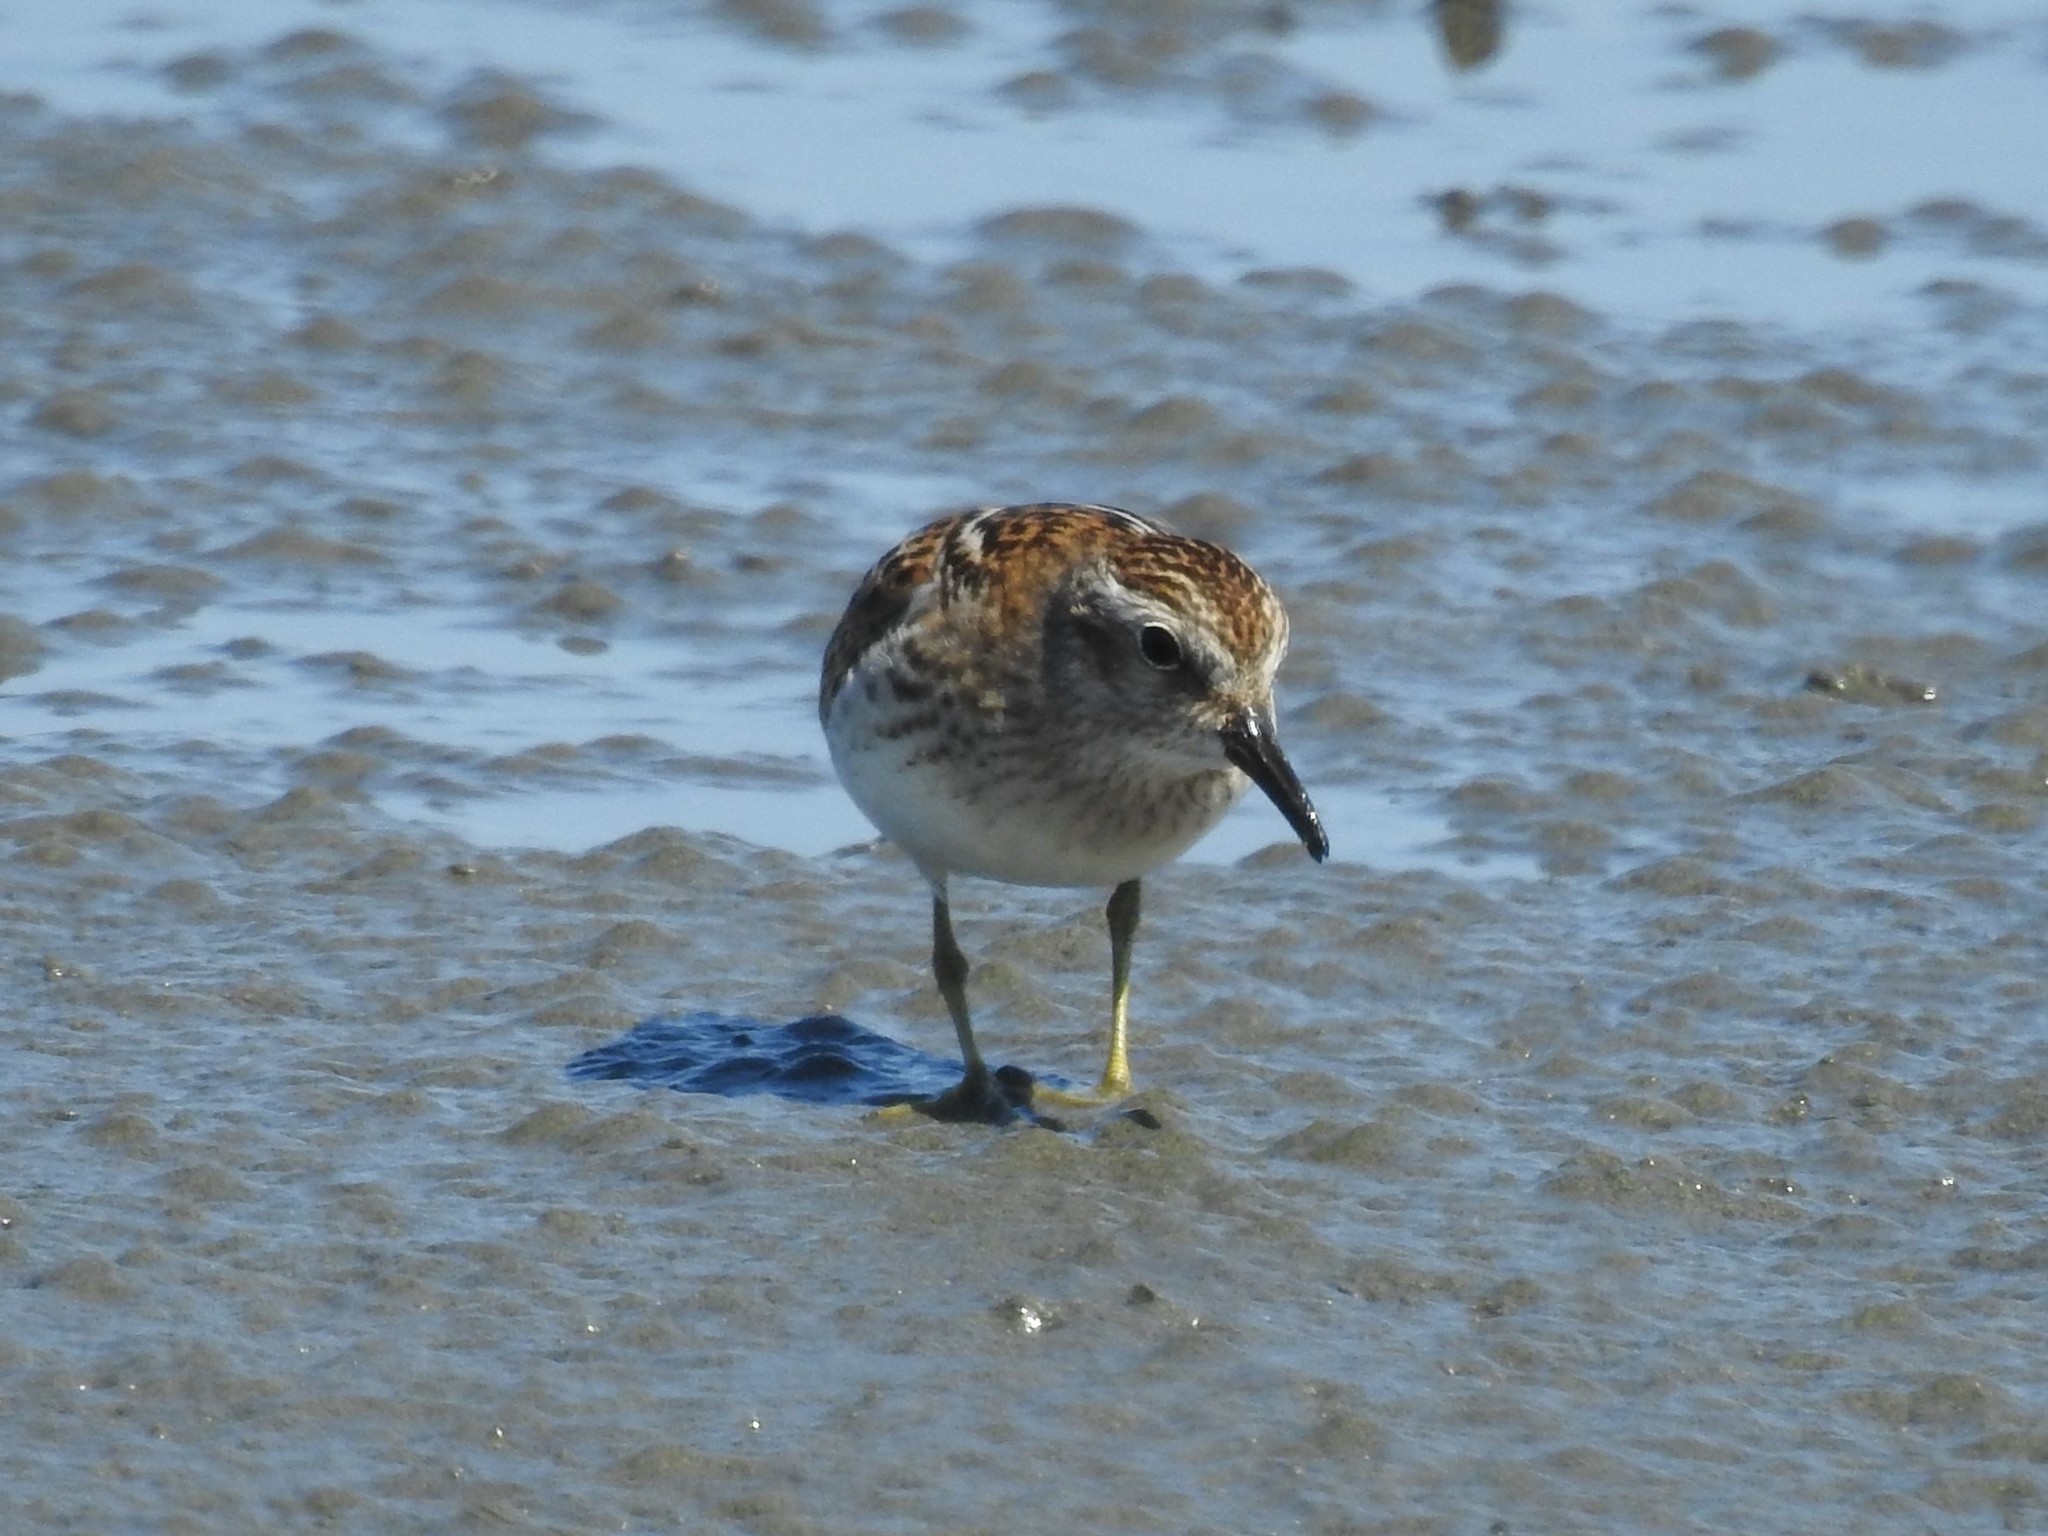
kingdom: Animalia
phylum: Chordata
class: Aves
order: Charadriiformes
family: Scolopacidae
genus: Calidris
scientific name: Calidris minutilla
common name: Least sandpiper
